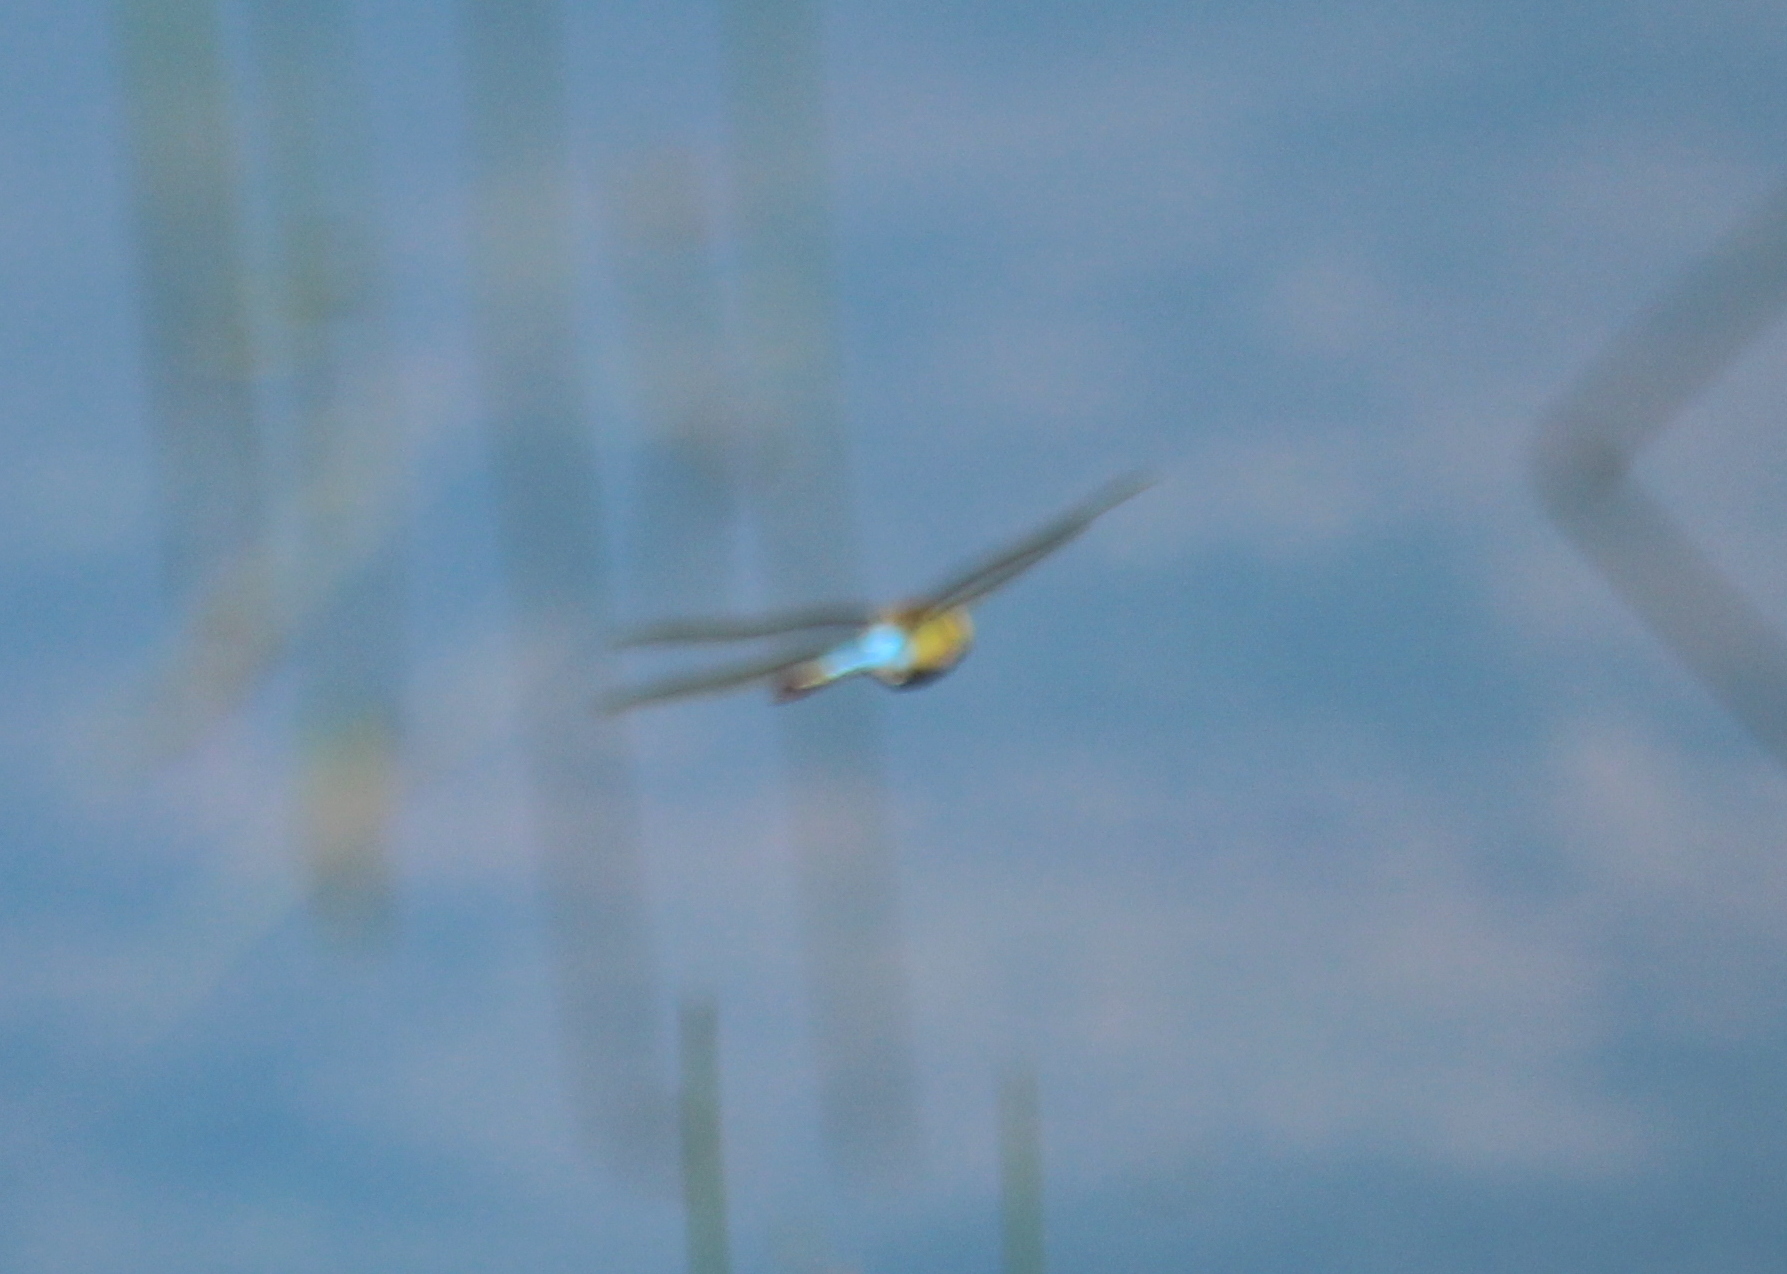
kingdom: Animalia
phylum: Arthropoda
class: Insecta
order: Odonata
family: Aeshnidae
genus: Anax
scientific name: Anax junius
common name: Common green darner
